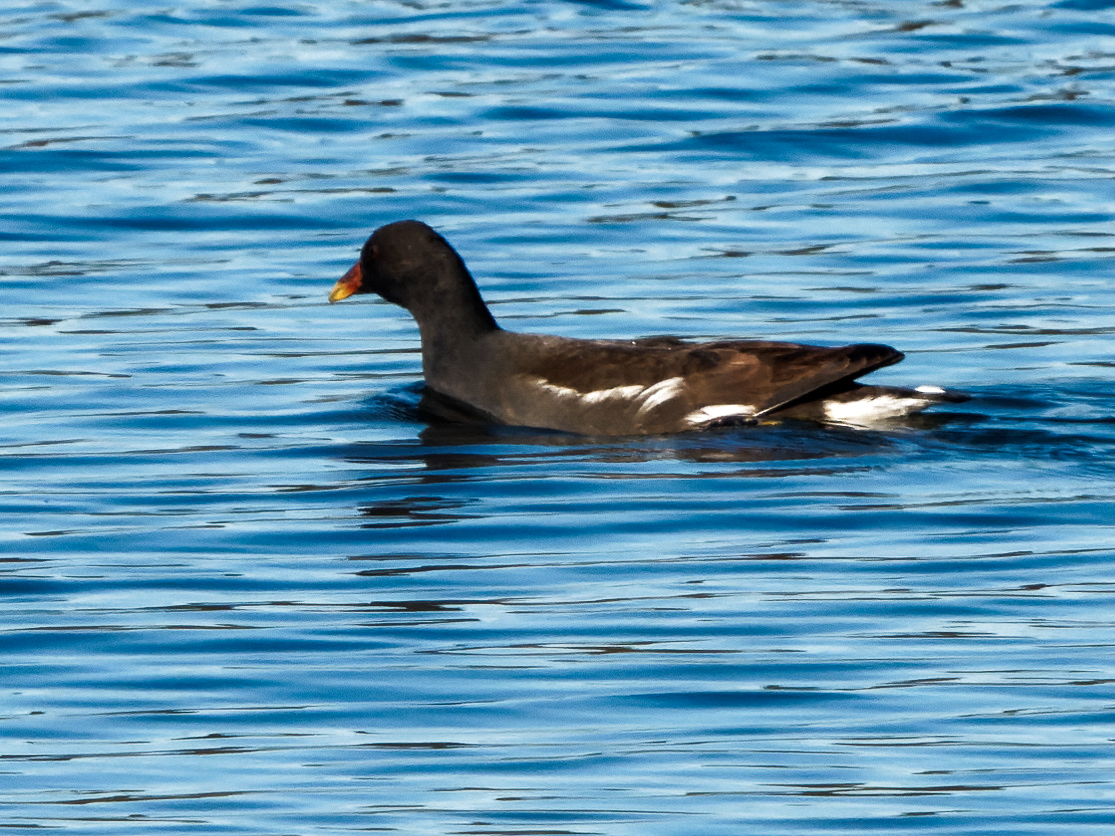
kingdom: Animalia
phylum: Chordata
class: Aves
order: Gruiformes
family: Rallidae
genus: Gallinula
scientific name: Gallinula chloropus
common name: Common moorhen
